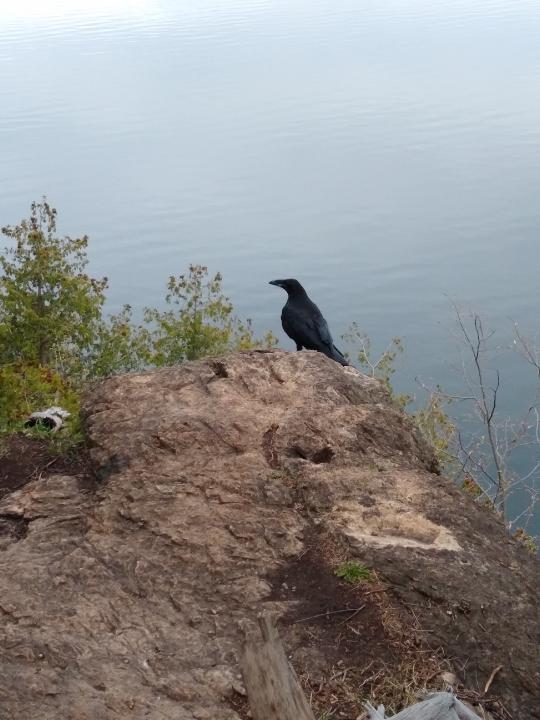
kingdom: Animalia
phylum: Chordata
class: Aves
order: Passeriformes
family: Corvidae
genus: Corvus
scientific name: Corvus corax
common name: Common raven
